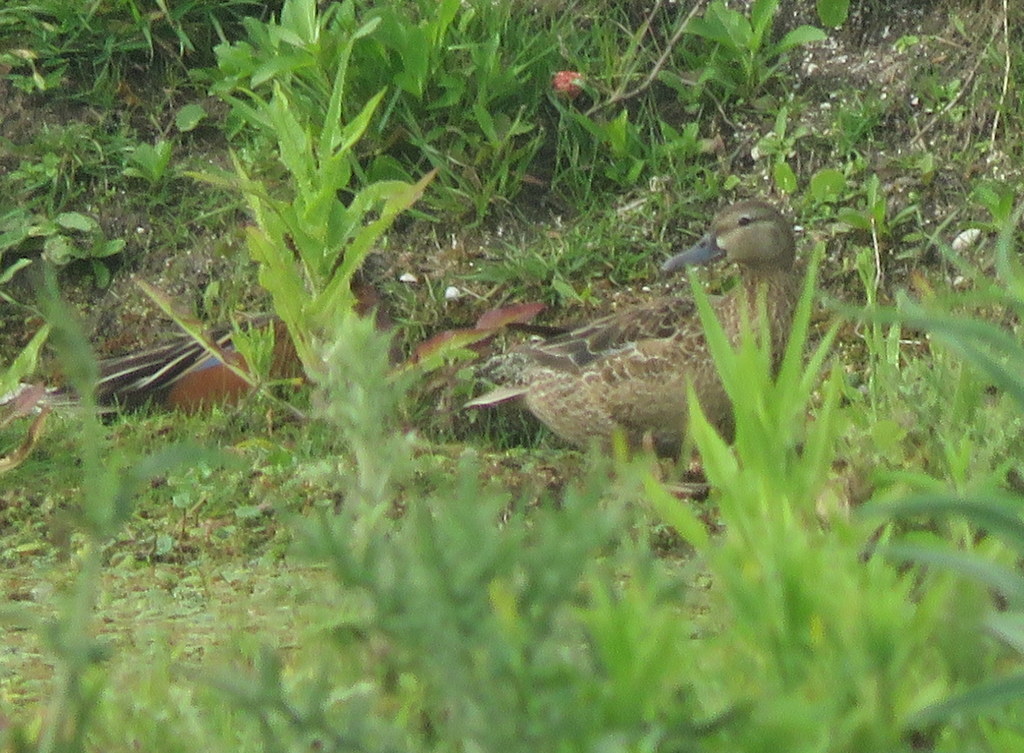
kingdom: Animalia
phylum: Chordata
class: Aves
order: Anseriformes
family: Anatidae
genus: Spatula
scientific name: Spatula cyanoptera
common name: Cinnamon teal
